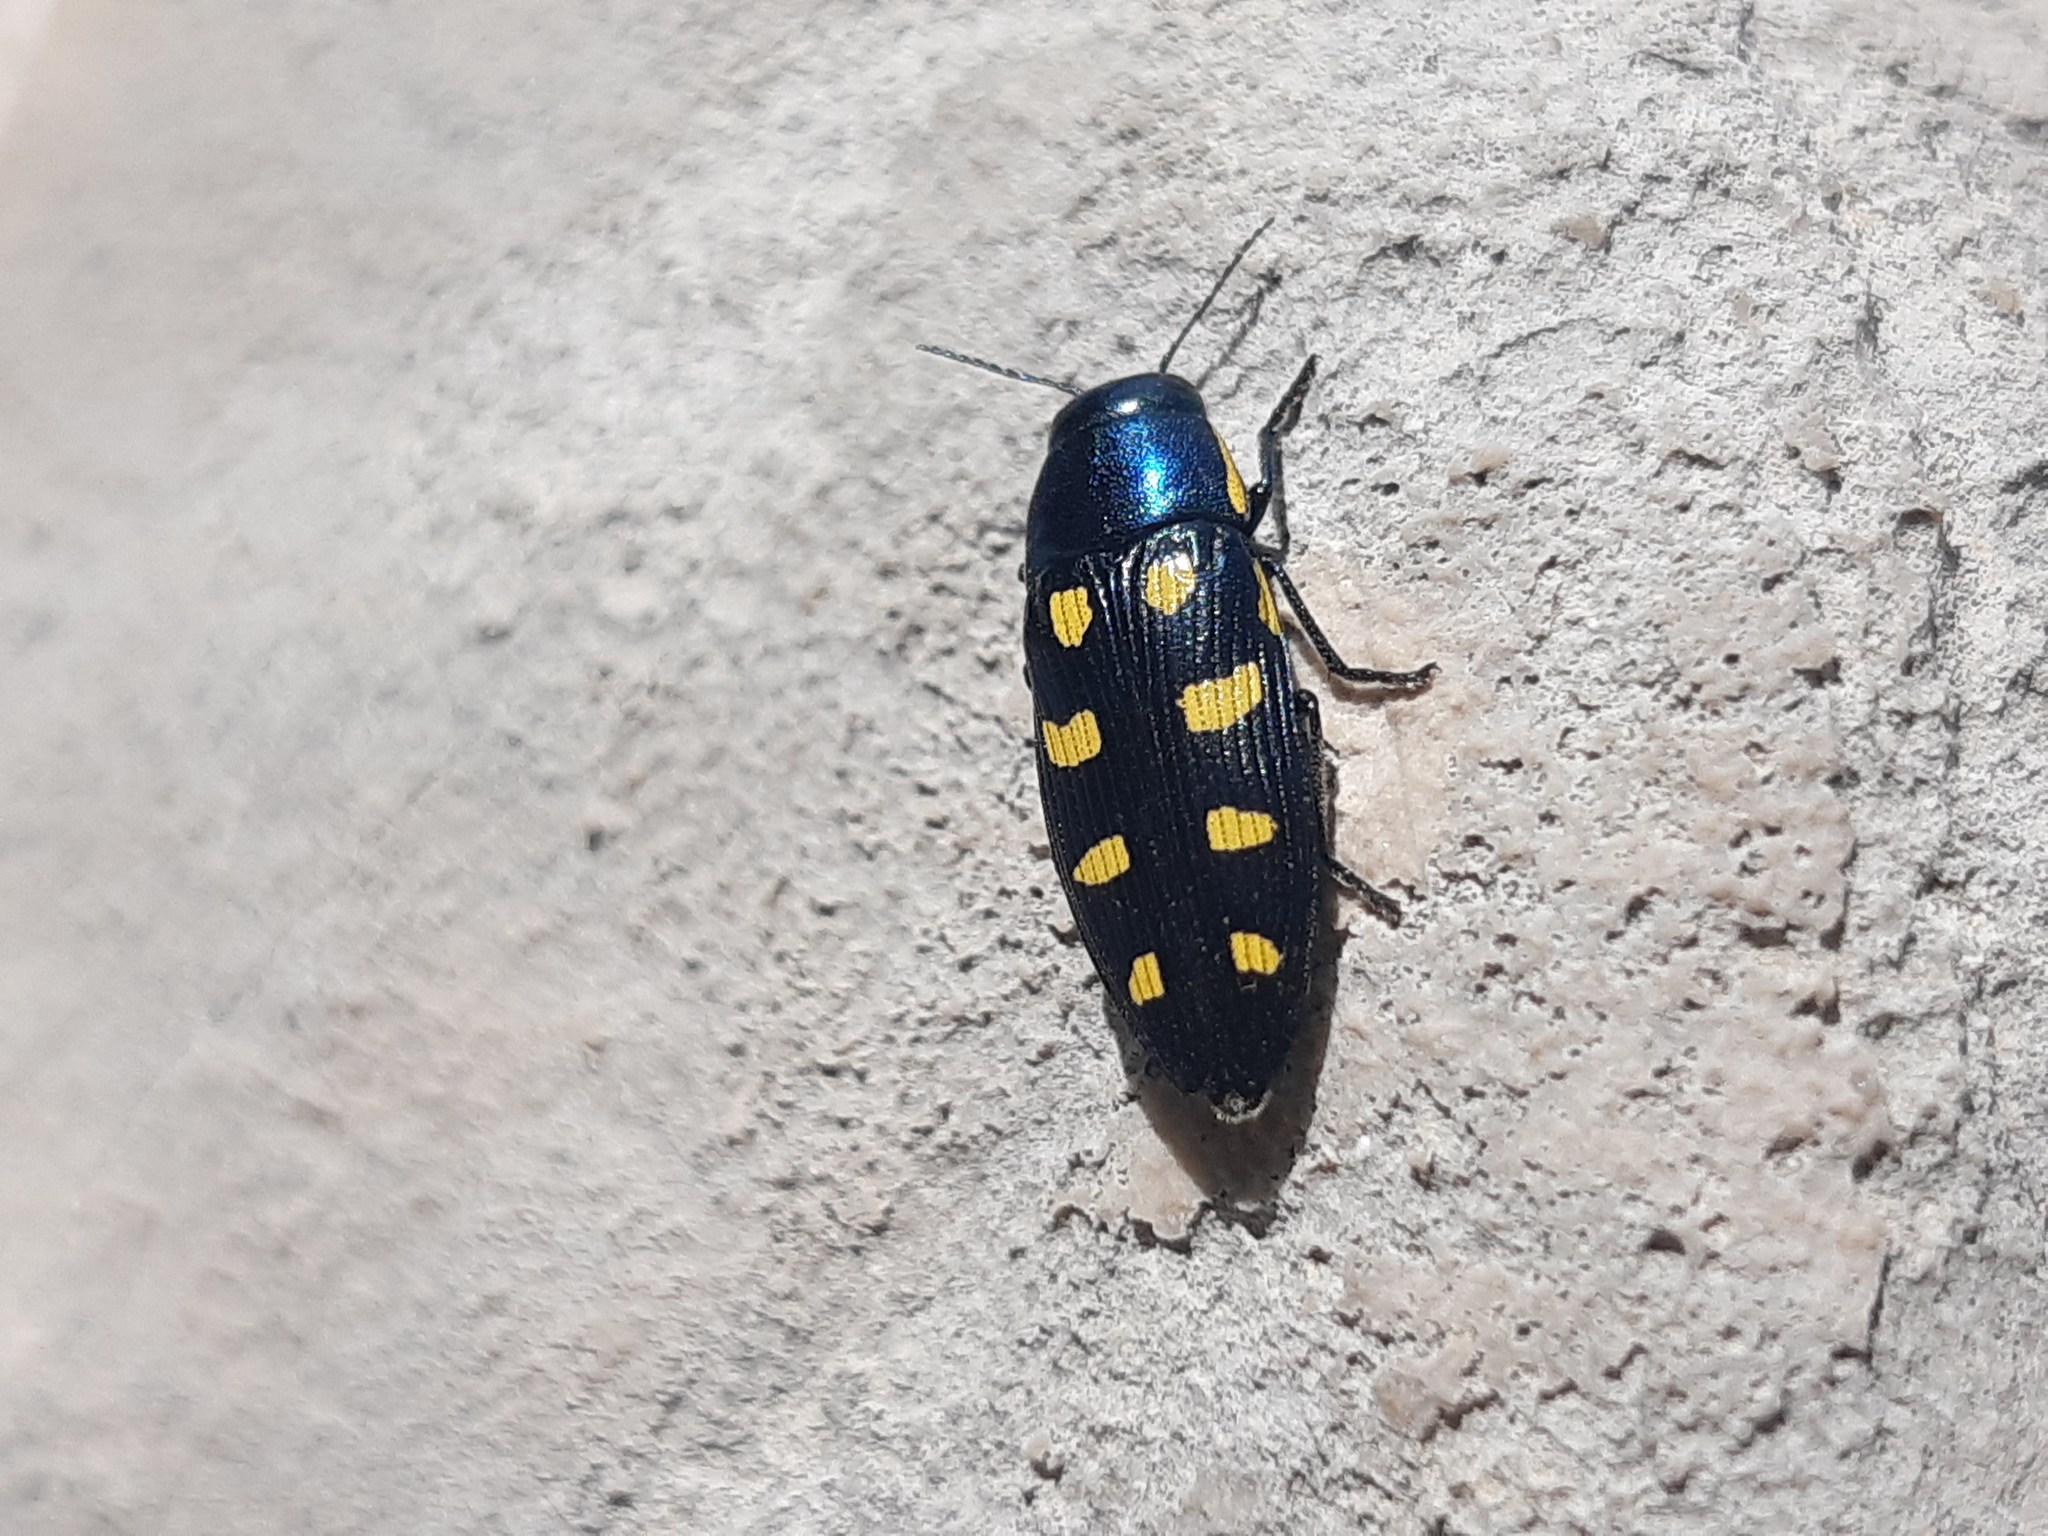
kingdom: Animalia
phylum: Arthropoda
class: Insecta
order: Coleoptera
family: Buprestidae
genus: Buprestis
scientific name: Buprestis octoguttata
